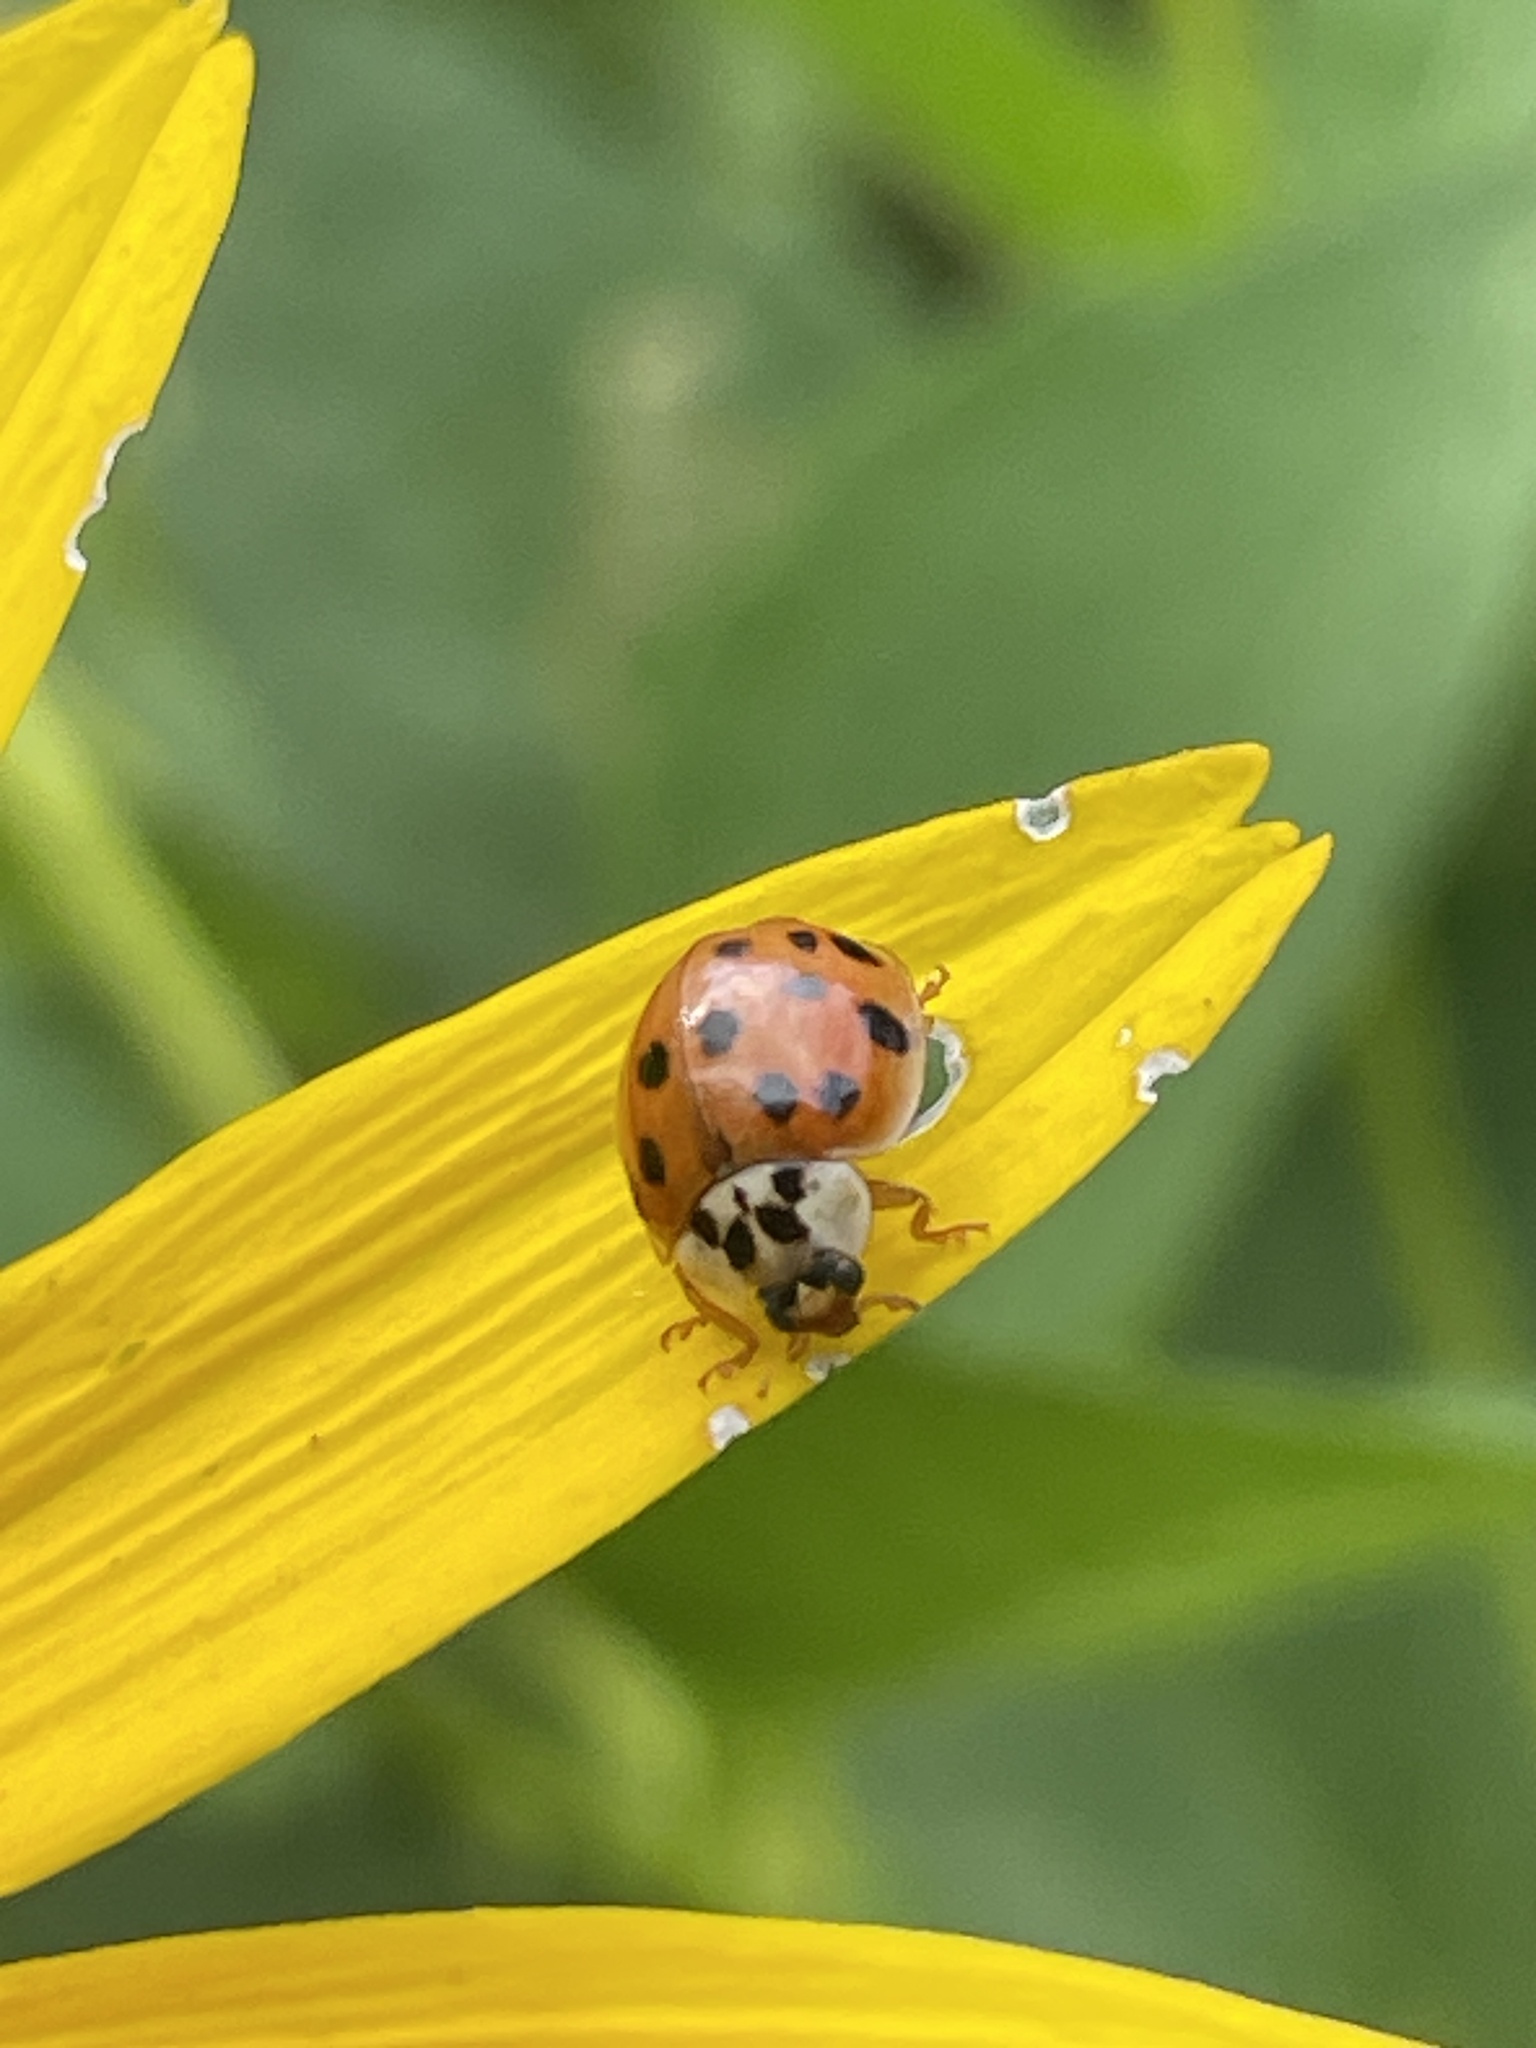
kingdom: Animalia
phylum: Arthropoda
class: Insecta
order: Coleoptera
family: Coccinellidae
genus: Harmonia
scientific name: Harmonia axyridis
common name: Harlequin ladybird
